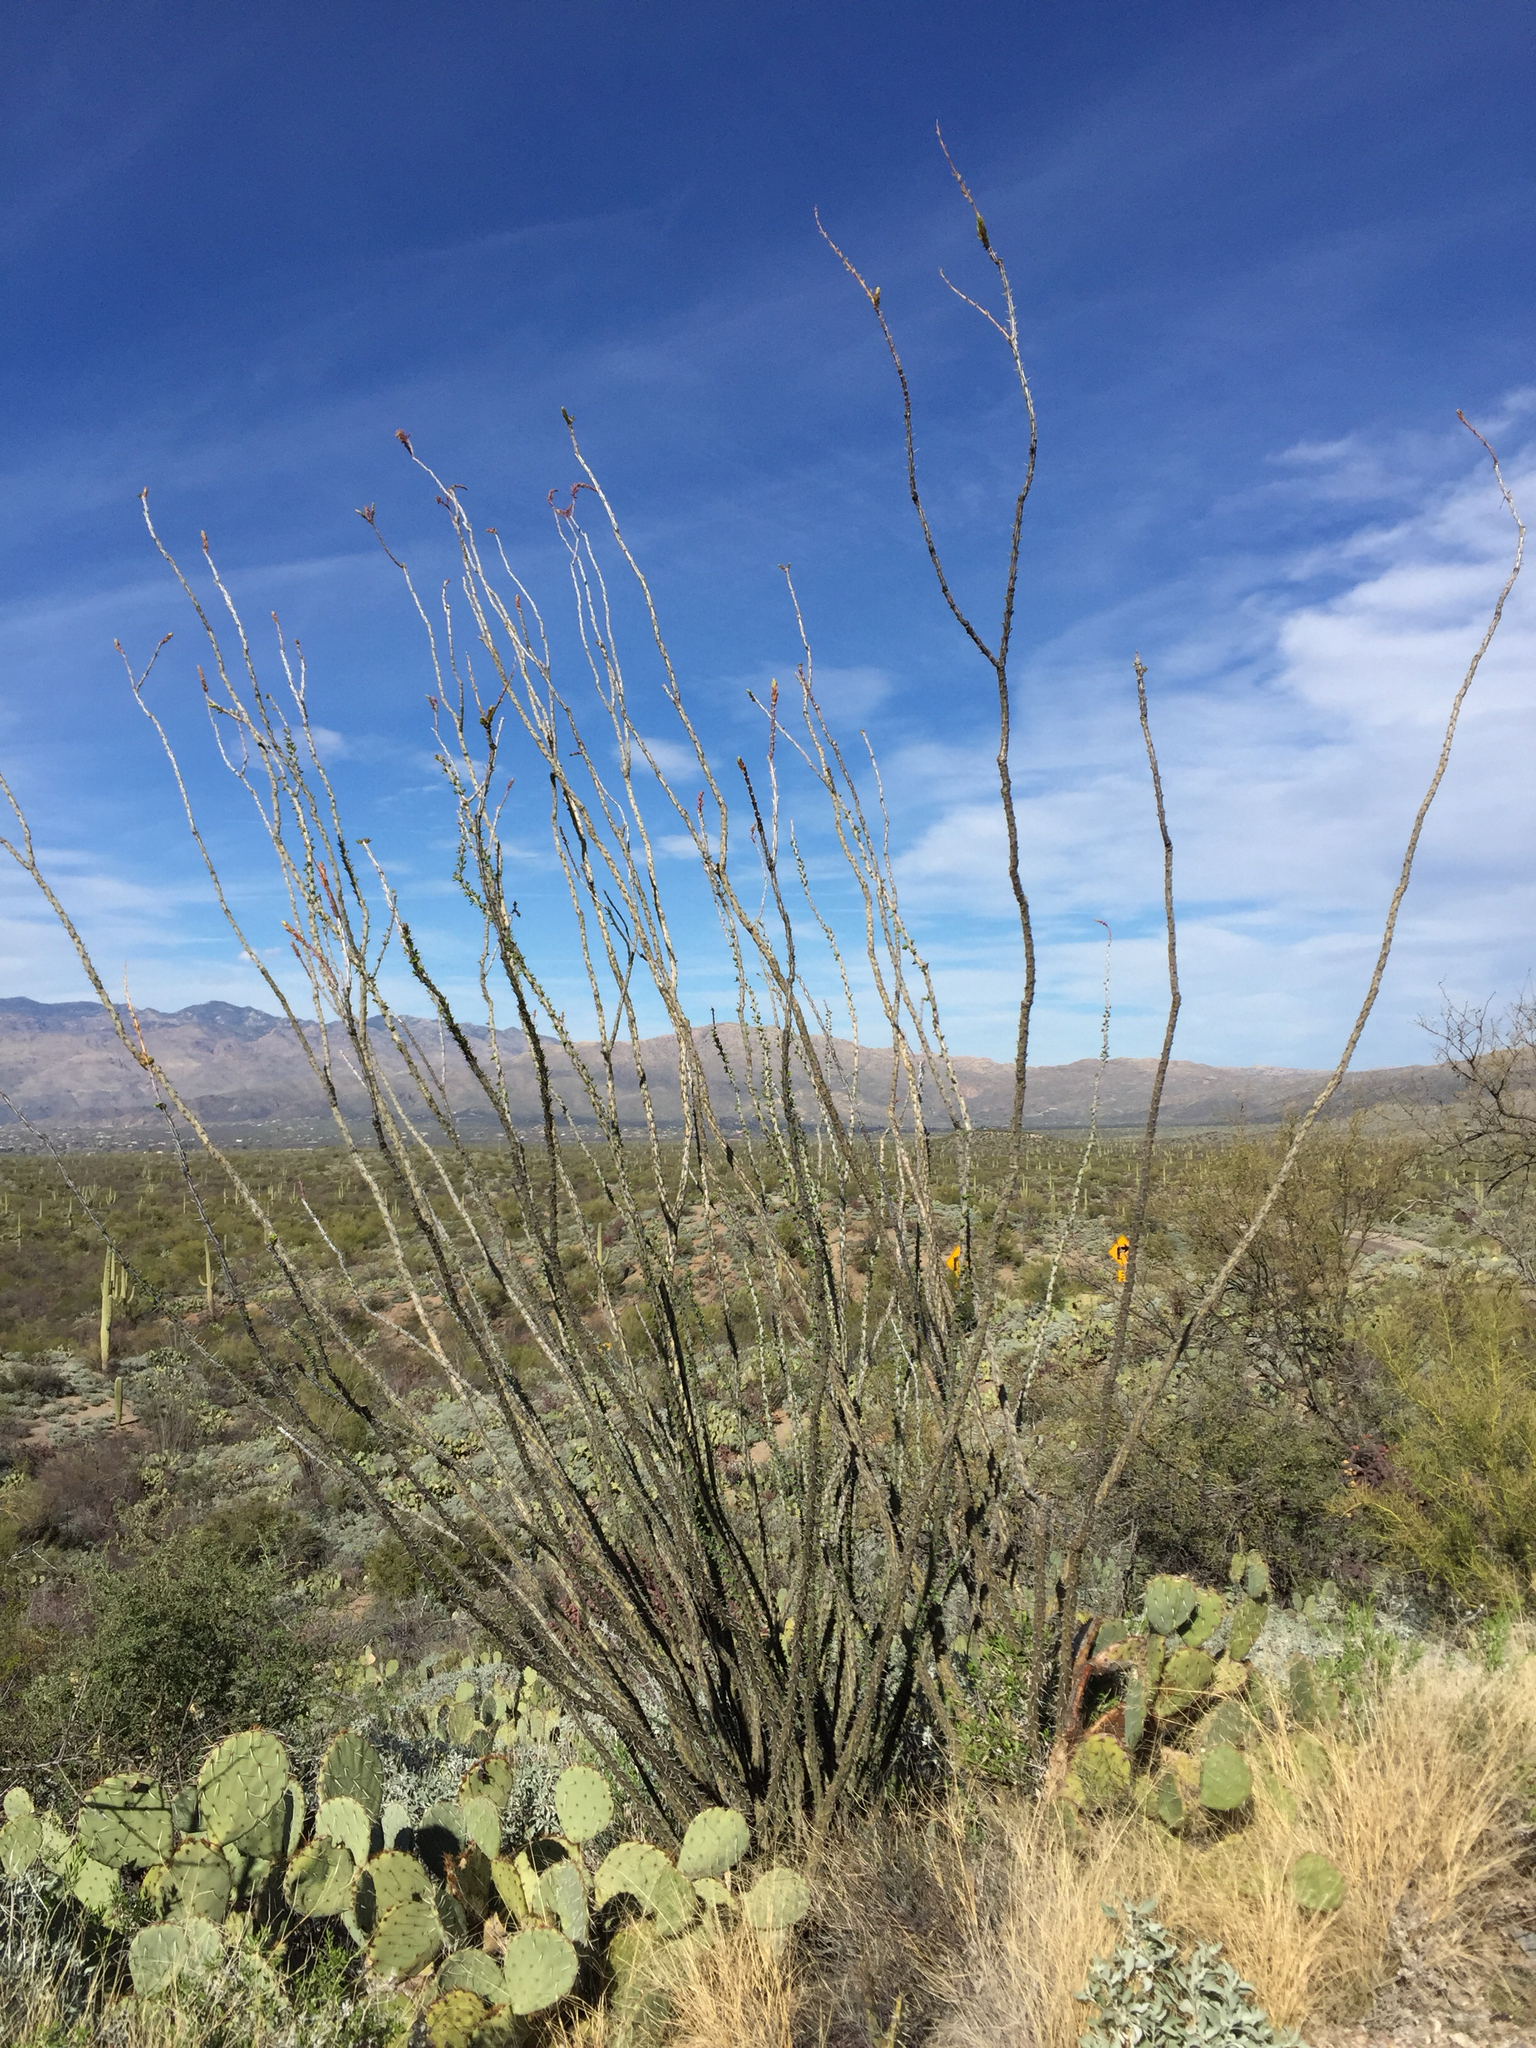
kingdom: Plantae
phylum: Tracheophyta
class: Magnoliopsida
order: Ericales
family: Fouquieriaceae
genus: Fouquieria
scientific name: Fouquieria splendens
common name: Vine-cactus
